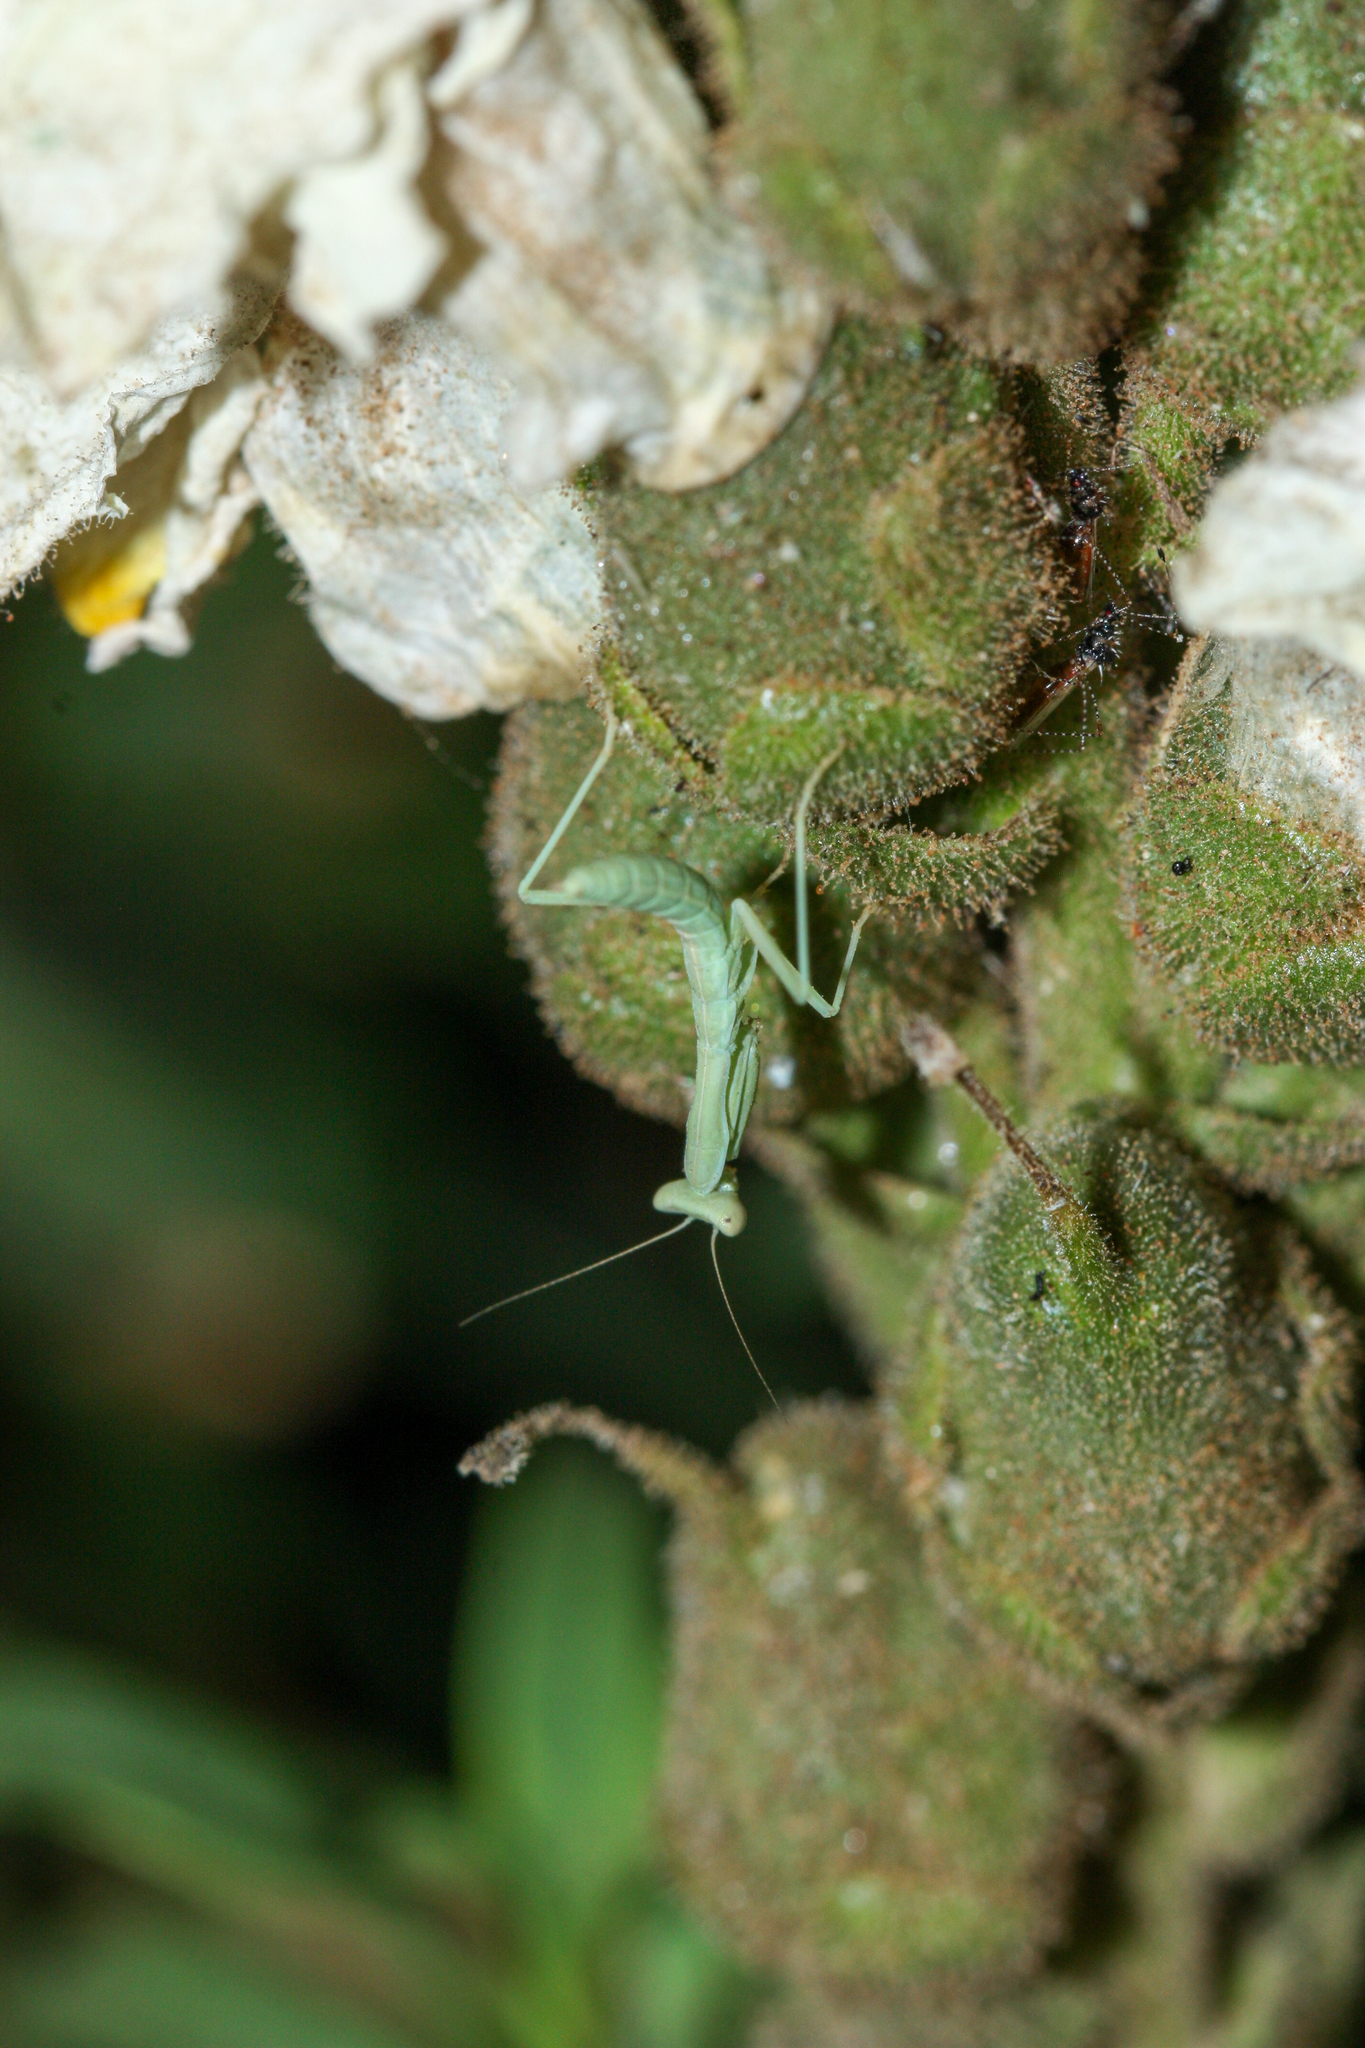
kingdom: Animalia
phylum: Arthropoda
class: Insecta
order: Mantodea
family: Eremiaphilidae
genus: Iris
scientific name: Iris oratoria
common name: Mediterranean mantis
